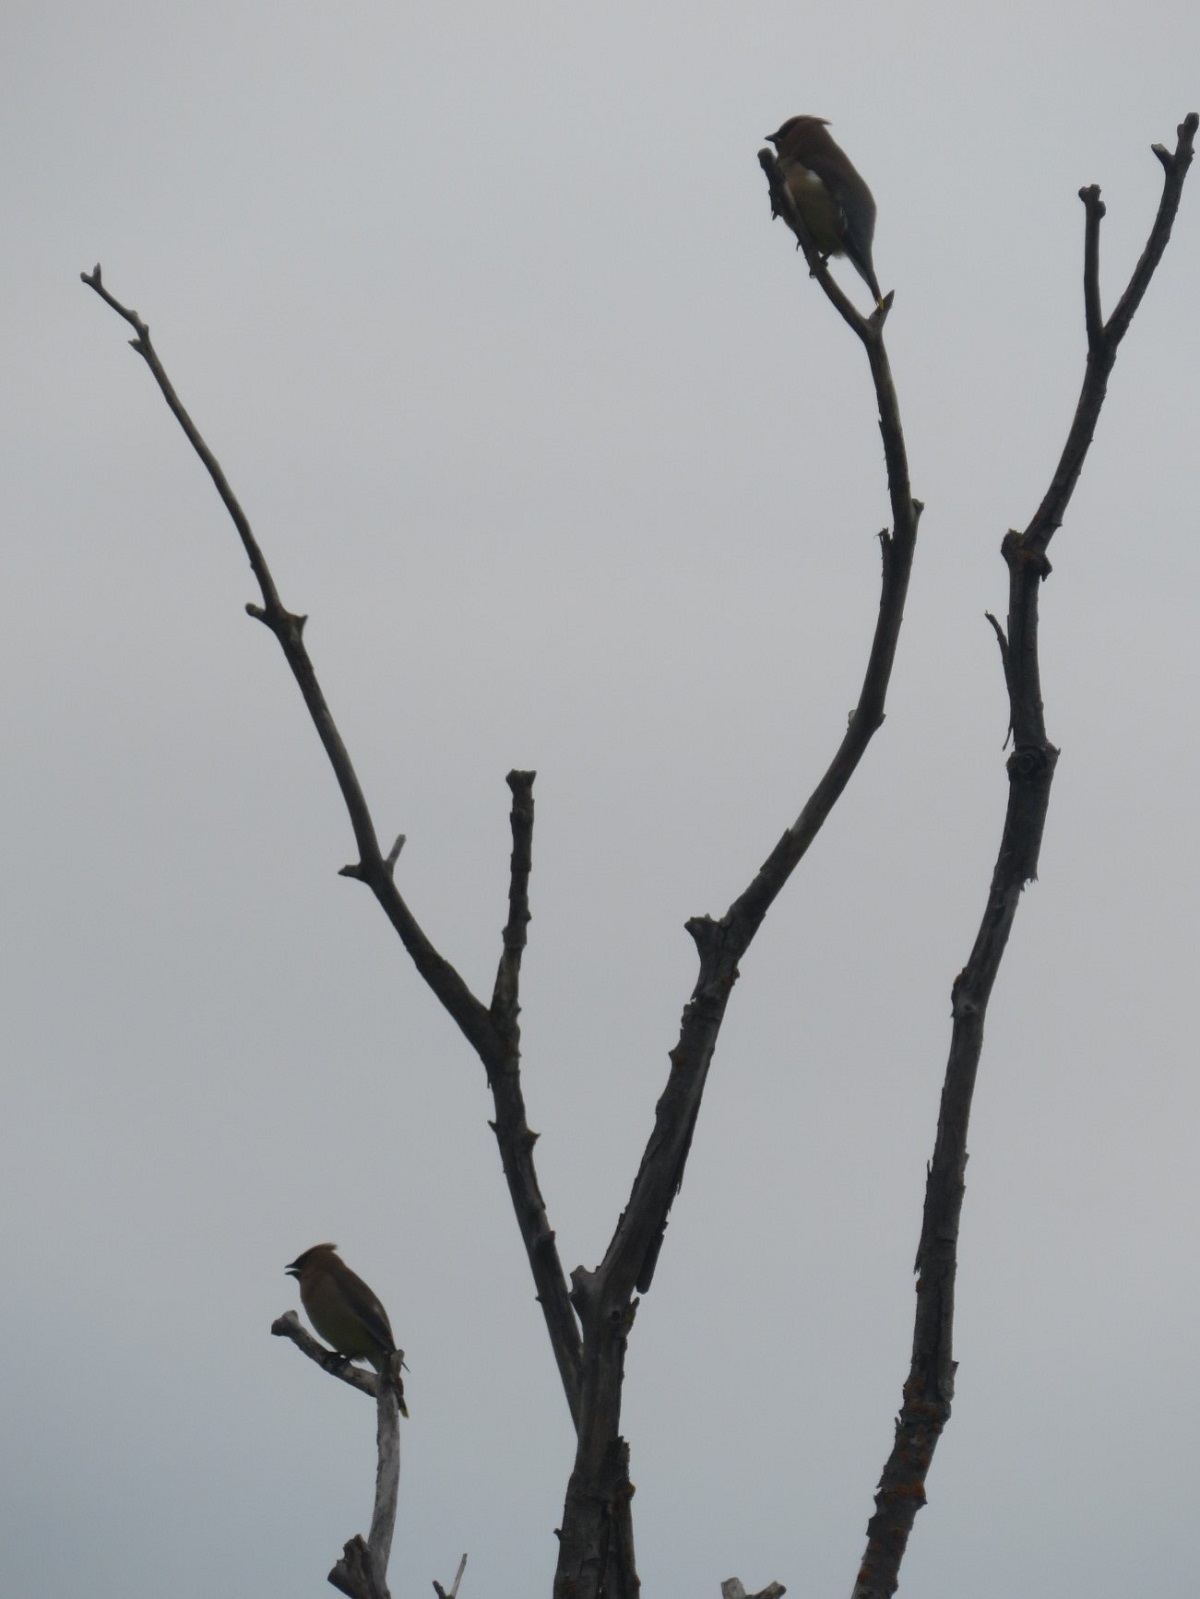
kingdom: Animalia
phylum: Chordata
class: Aves
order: Passeriformes
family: Bombycillidae
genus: Bombycilla
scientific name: Bombycilla cedrorum
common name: Cedar waxwing
